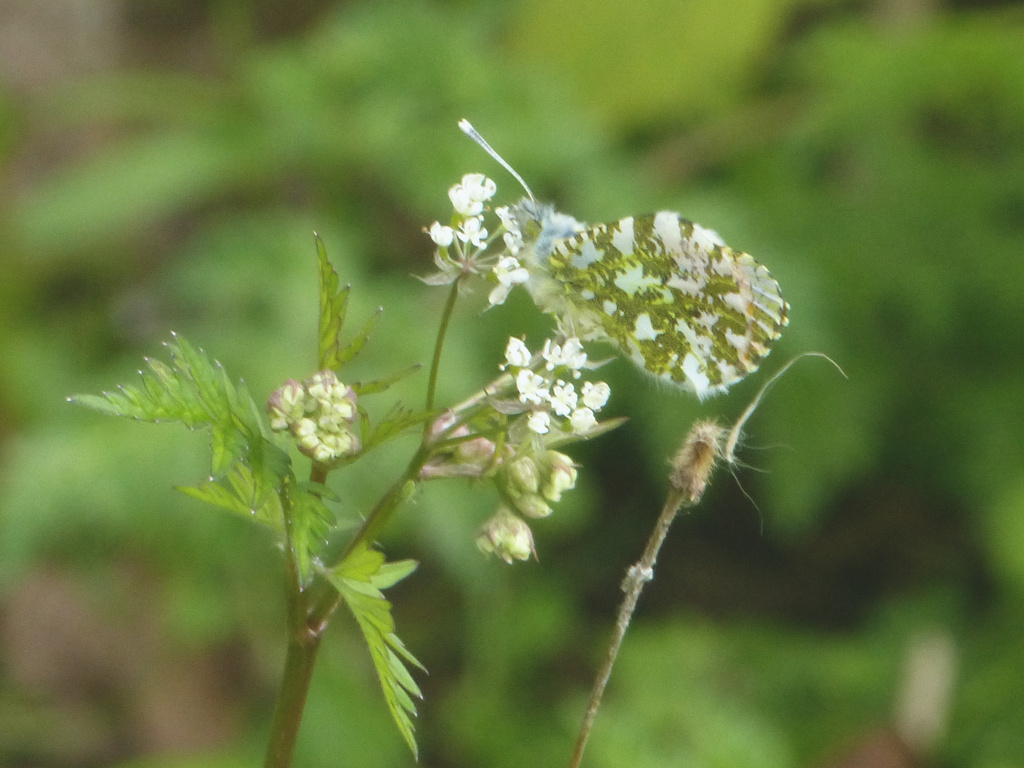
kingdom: Animalia
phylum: Arthropoda
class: Insecta
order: Lepidoptera
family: Pieridae
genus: Anthocharis
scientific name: Anthocharis cardamines
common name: Orange-tip
